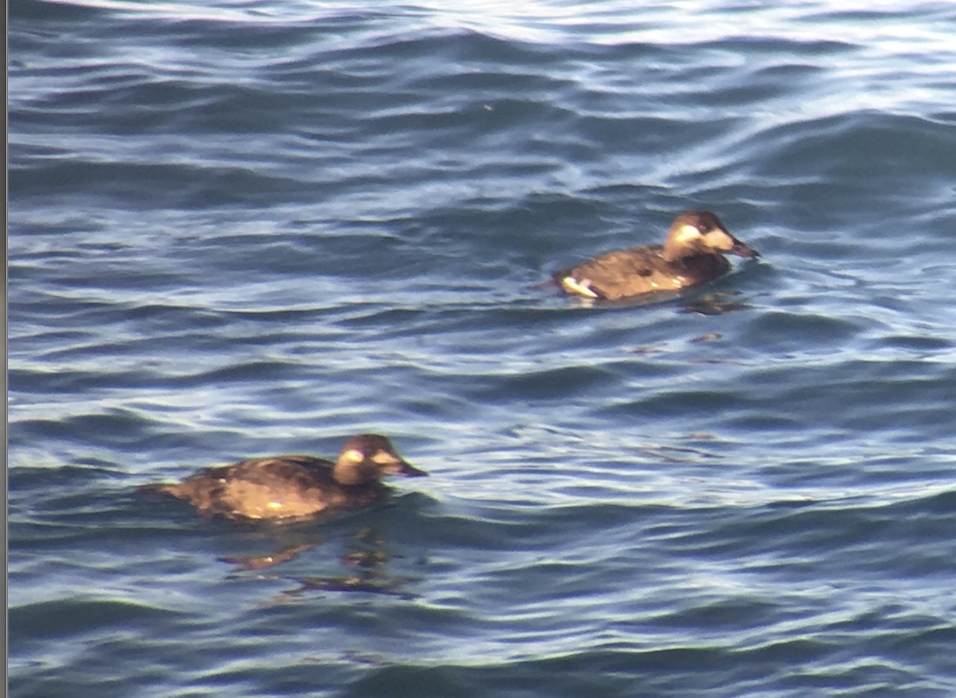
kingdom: Animalia
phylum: Chordata
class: Aves
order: Anseriformes
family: Anatidae
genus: Melanitta
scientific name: Melanitta deglandi
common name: White-winged scoter
